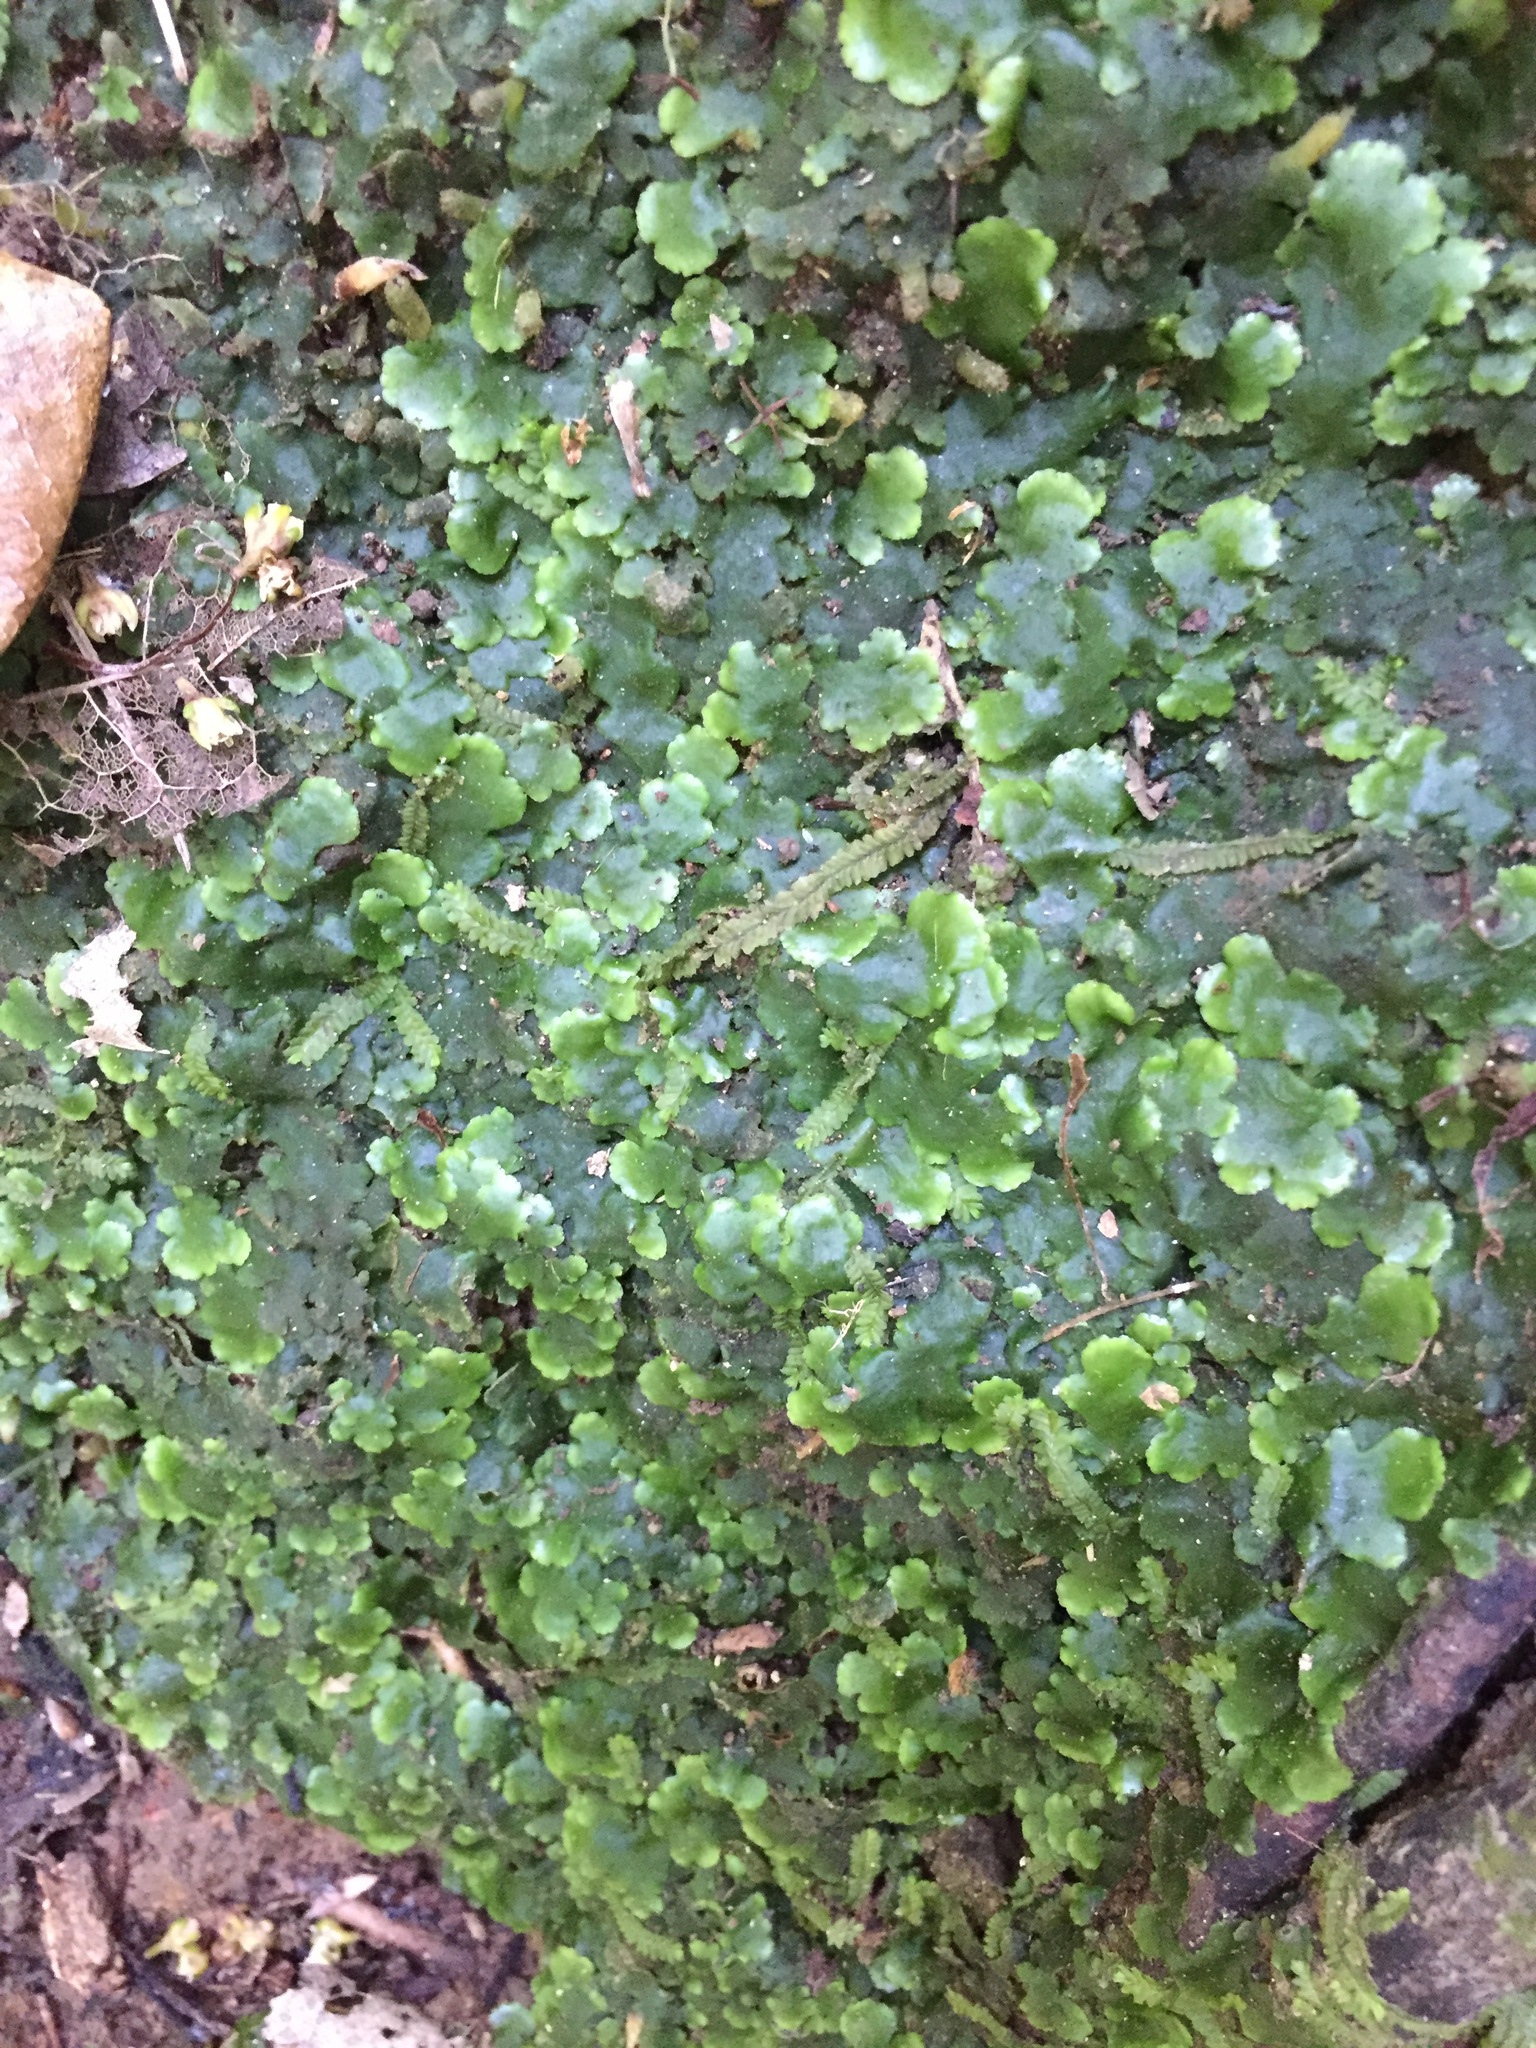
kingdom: Plantae
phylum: Marchantiophyta
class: Jungermanniopsida
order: Metzgeriales
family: Aneuraceae
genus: Lobatiriccardia
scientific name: Lobatiriccardia alterniloba
